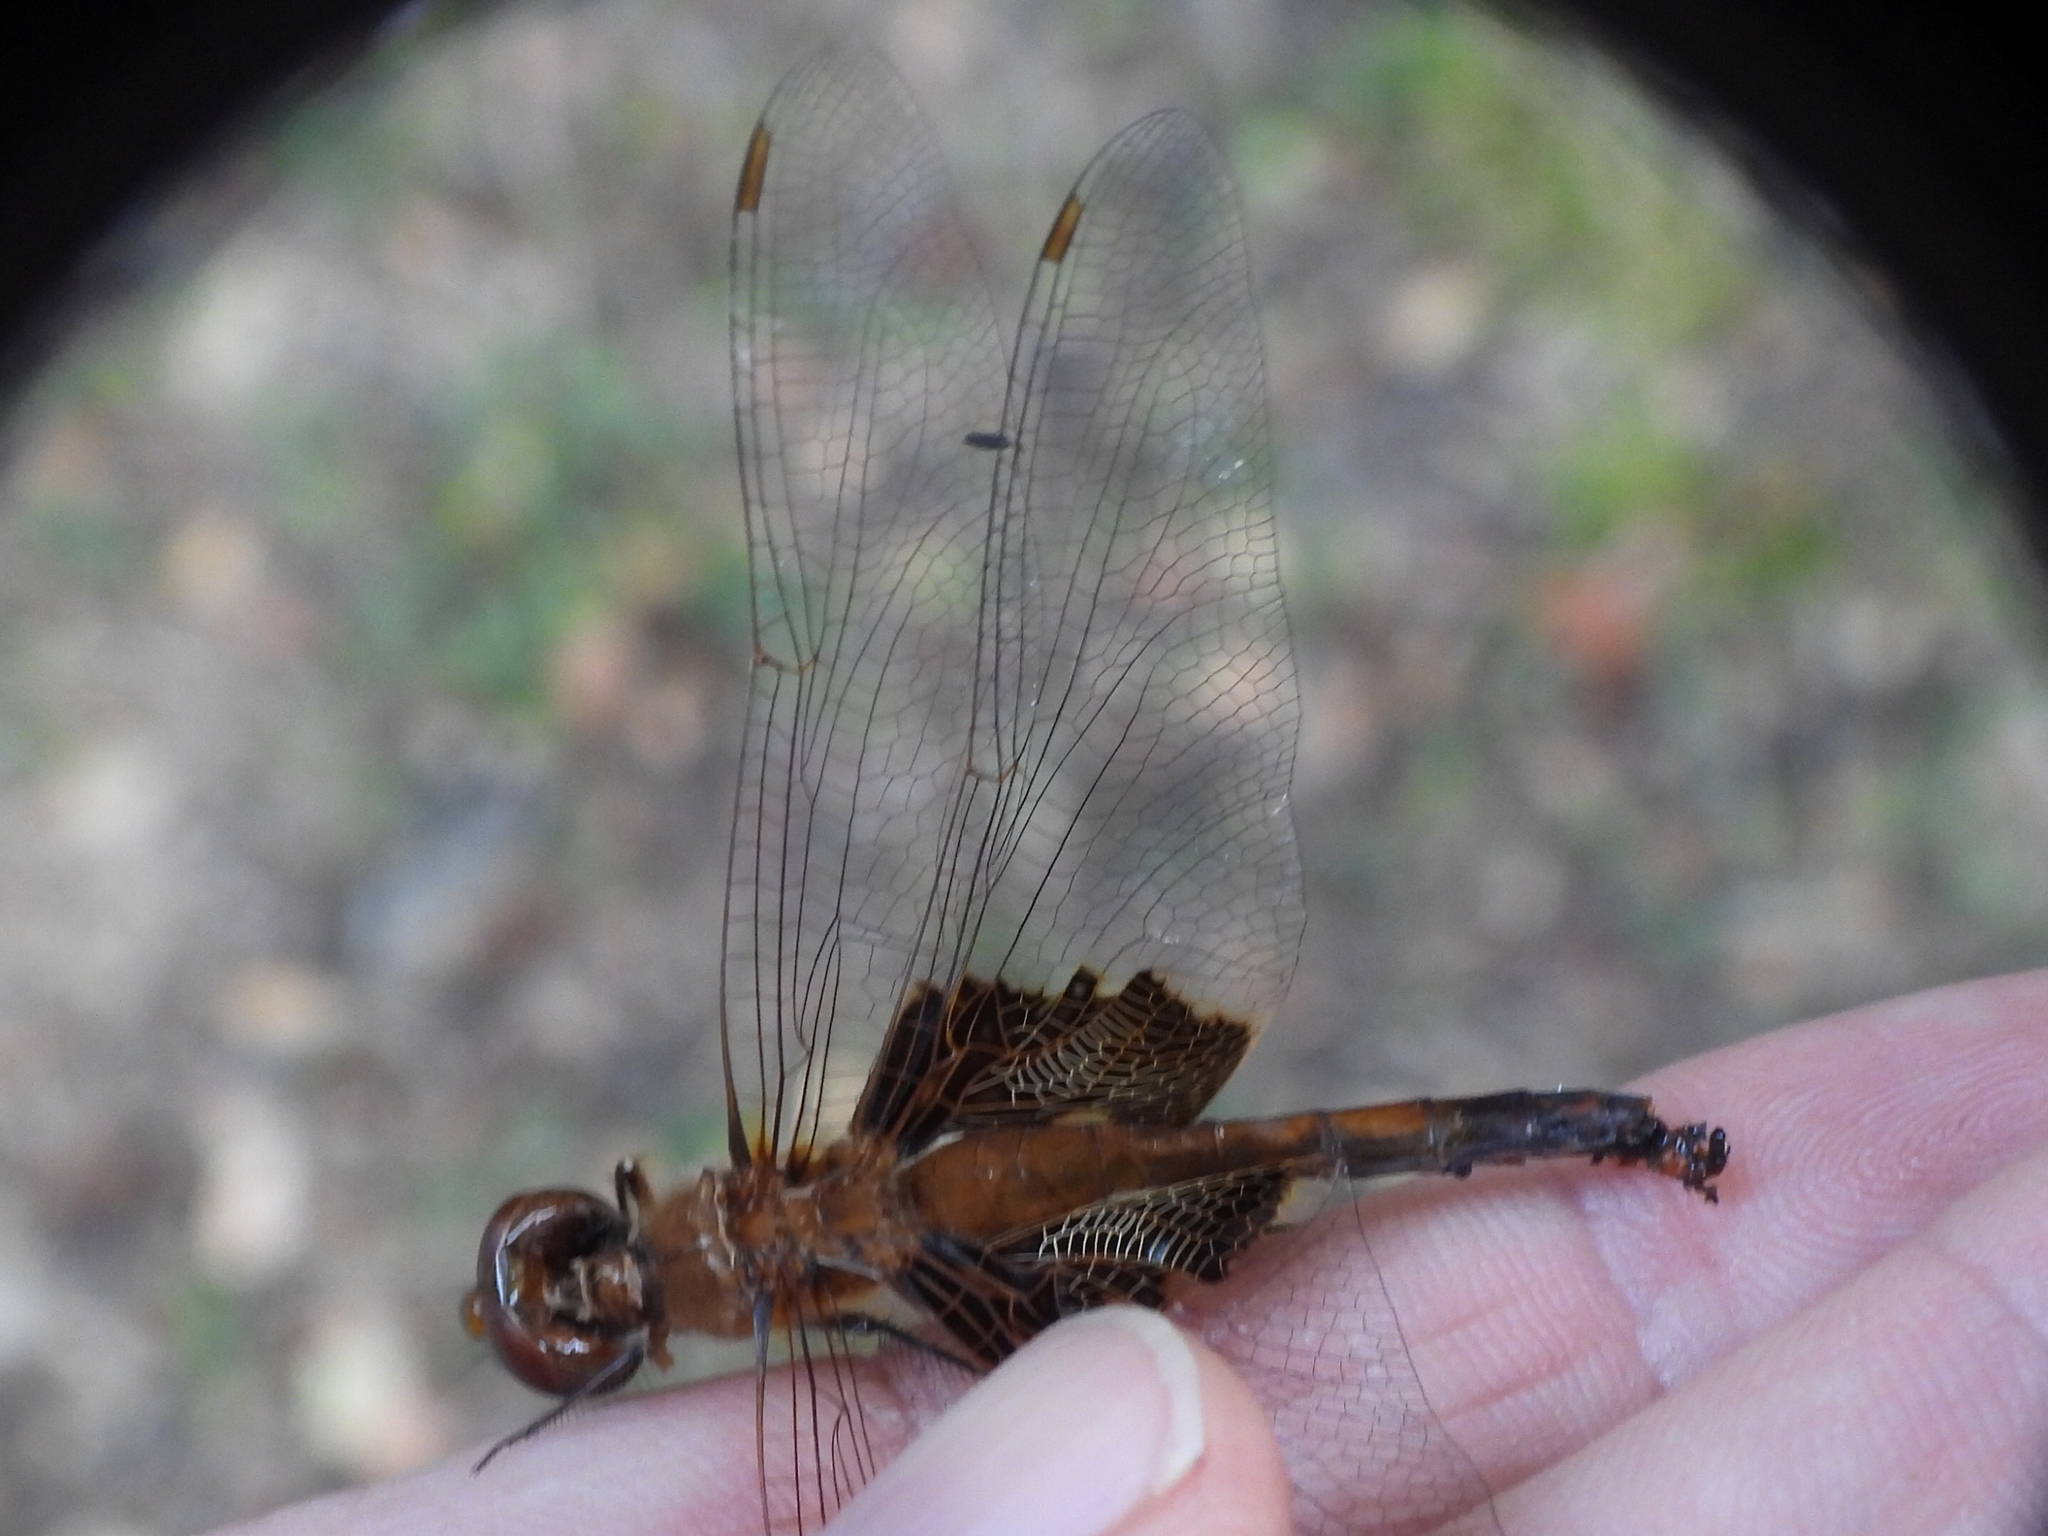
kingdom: Animalia
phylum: Arthropoda
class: Insecta
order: Odonata
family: Libellulidae
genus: Tramea
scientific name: Tramea onusta
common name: Red saddlebags
